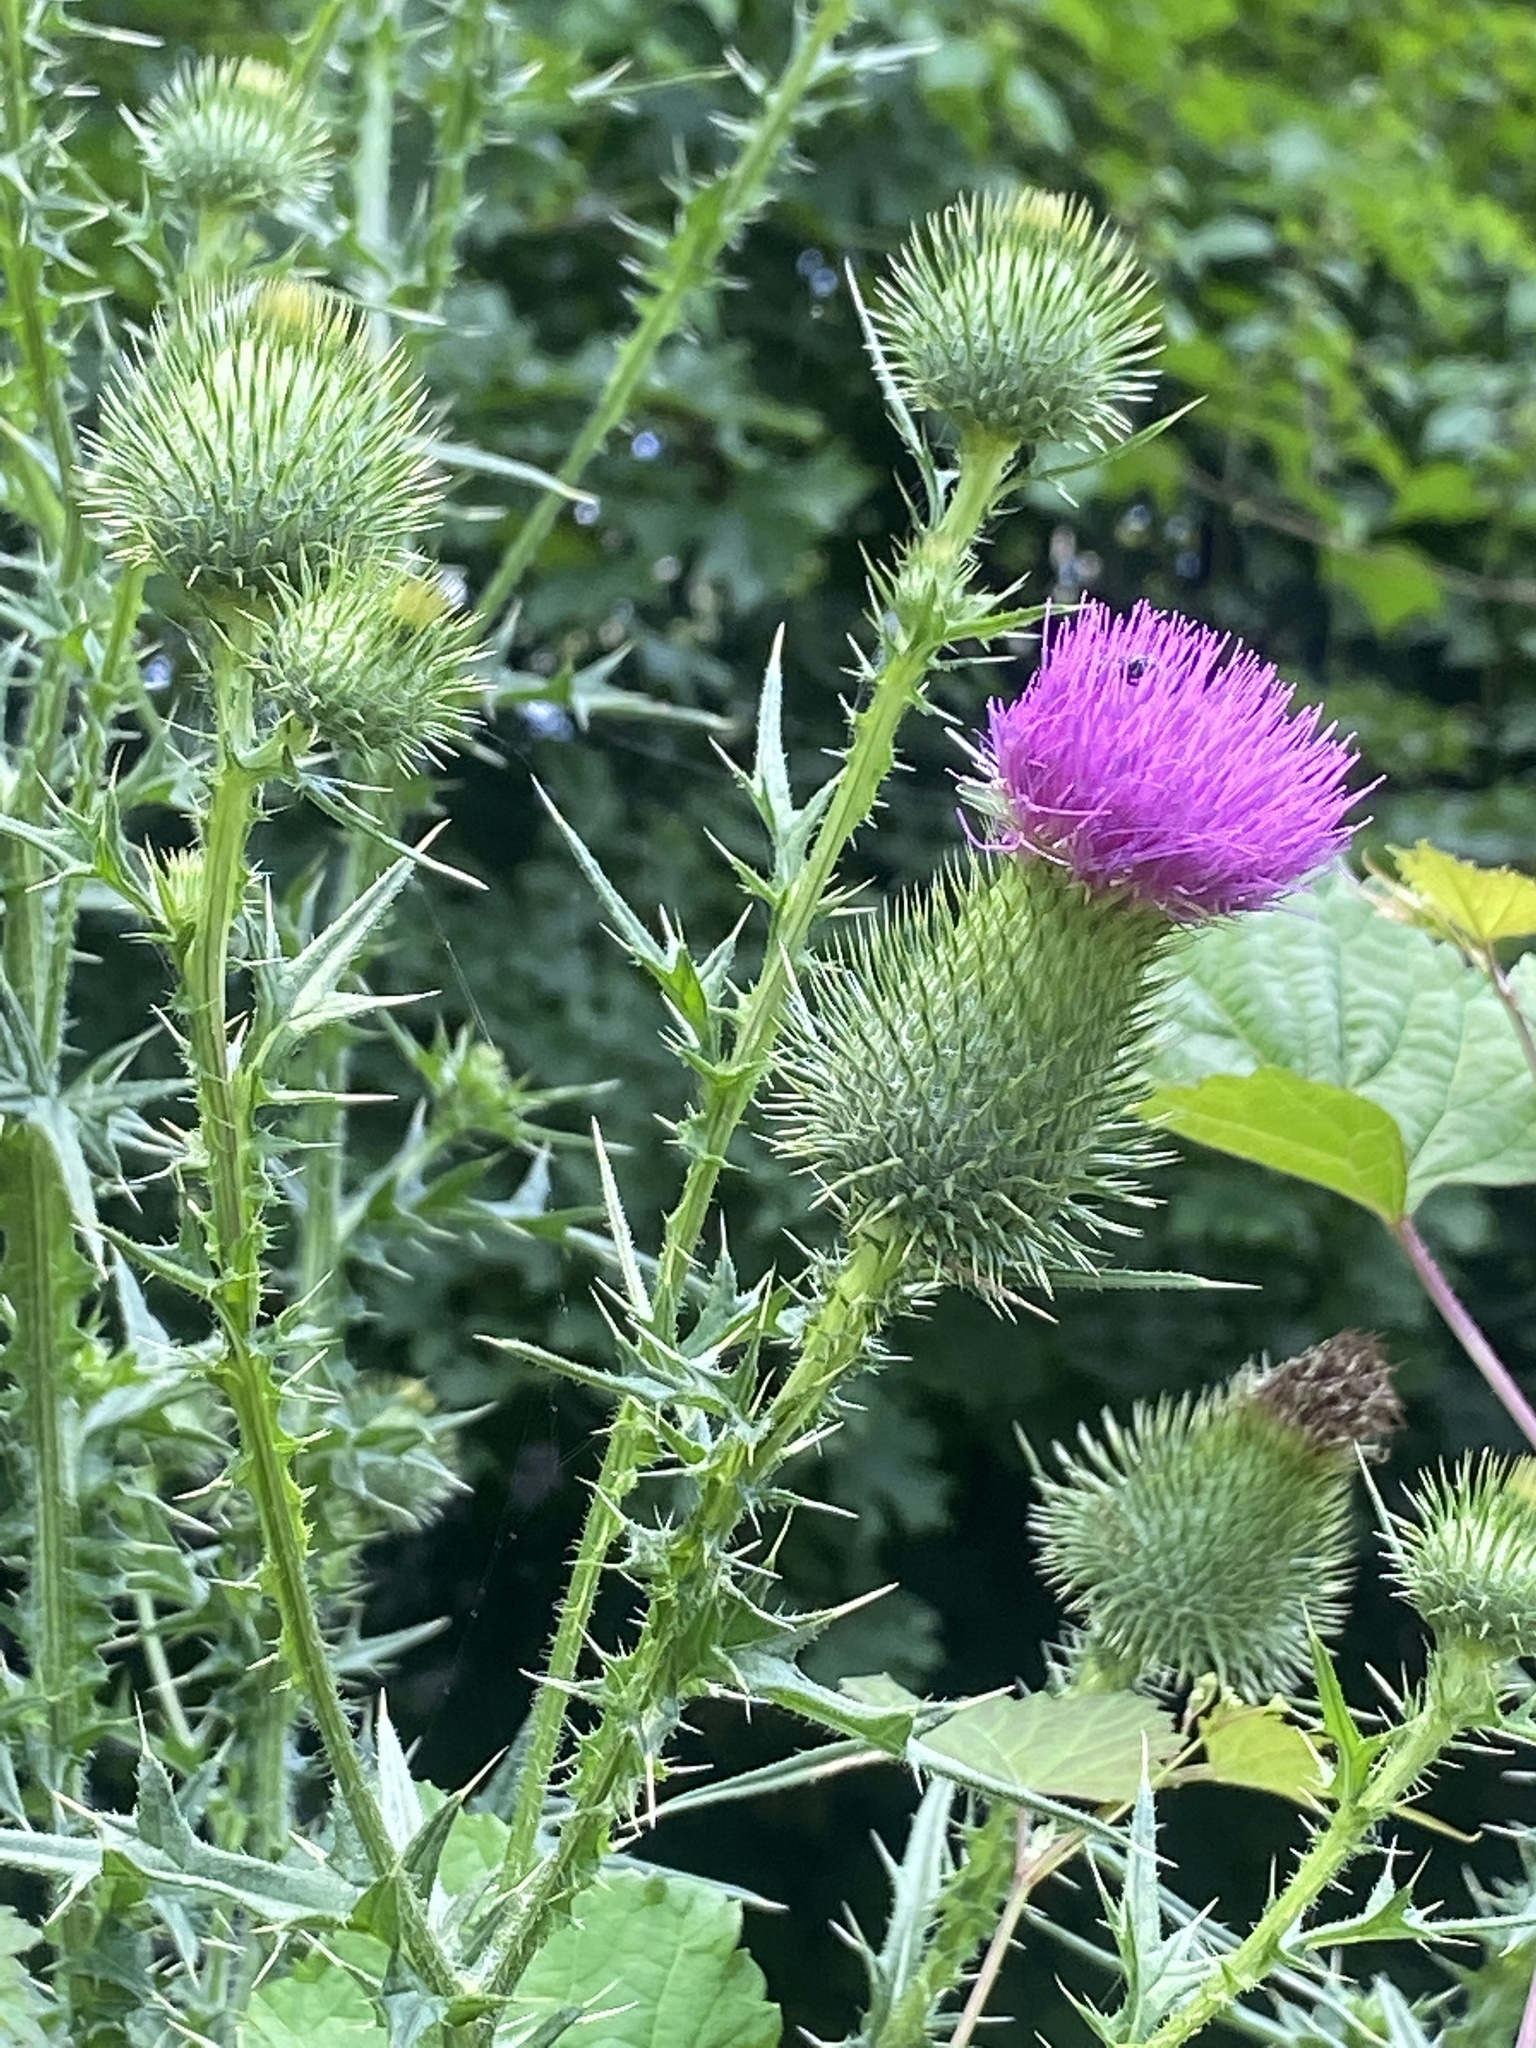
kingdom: Plantae
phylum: Tracheophyta
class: Magnoliopsida
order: Asterales
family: Asteraceae
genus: Cirsium
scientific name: Cirsium vulgare
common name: Bull thistle
